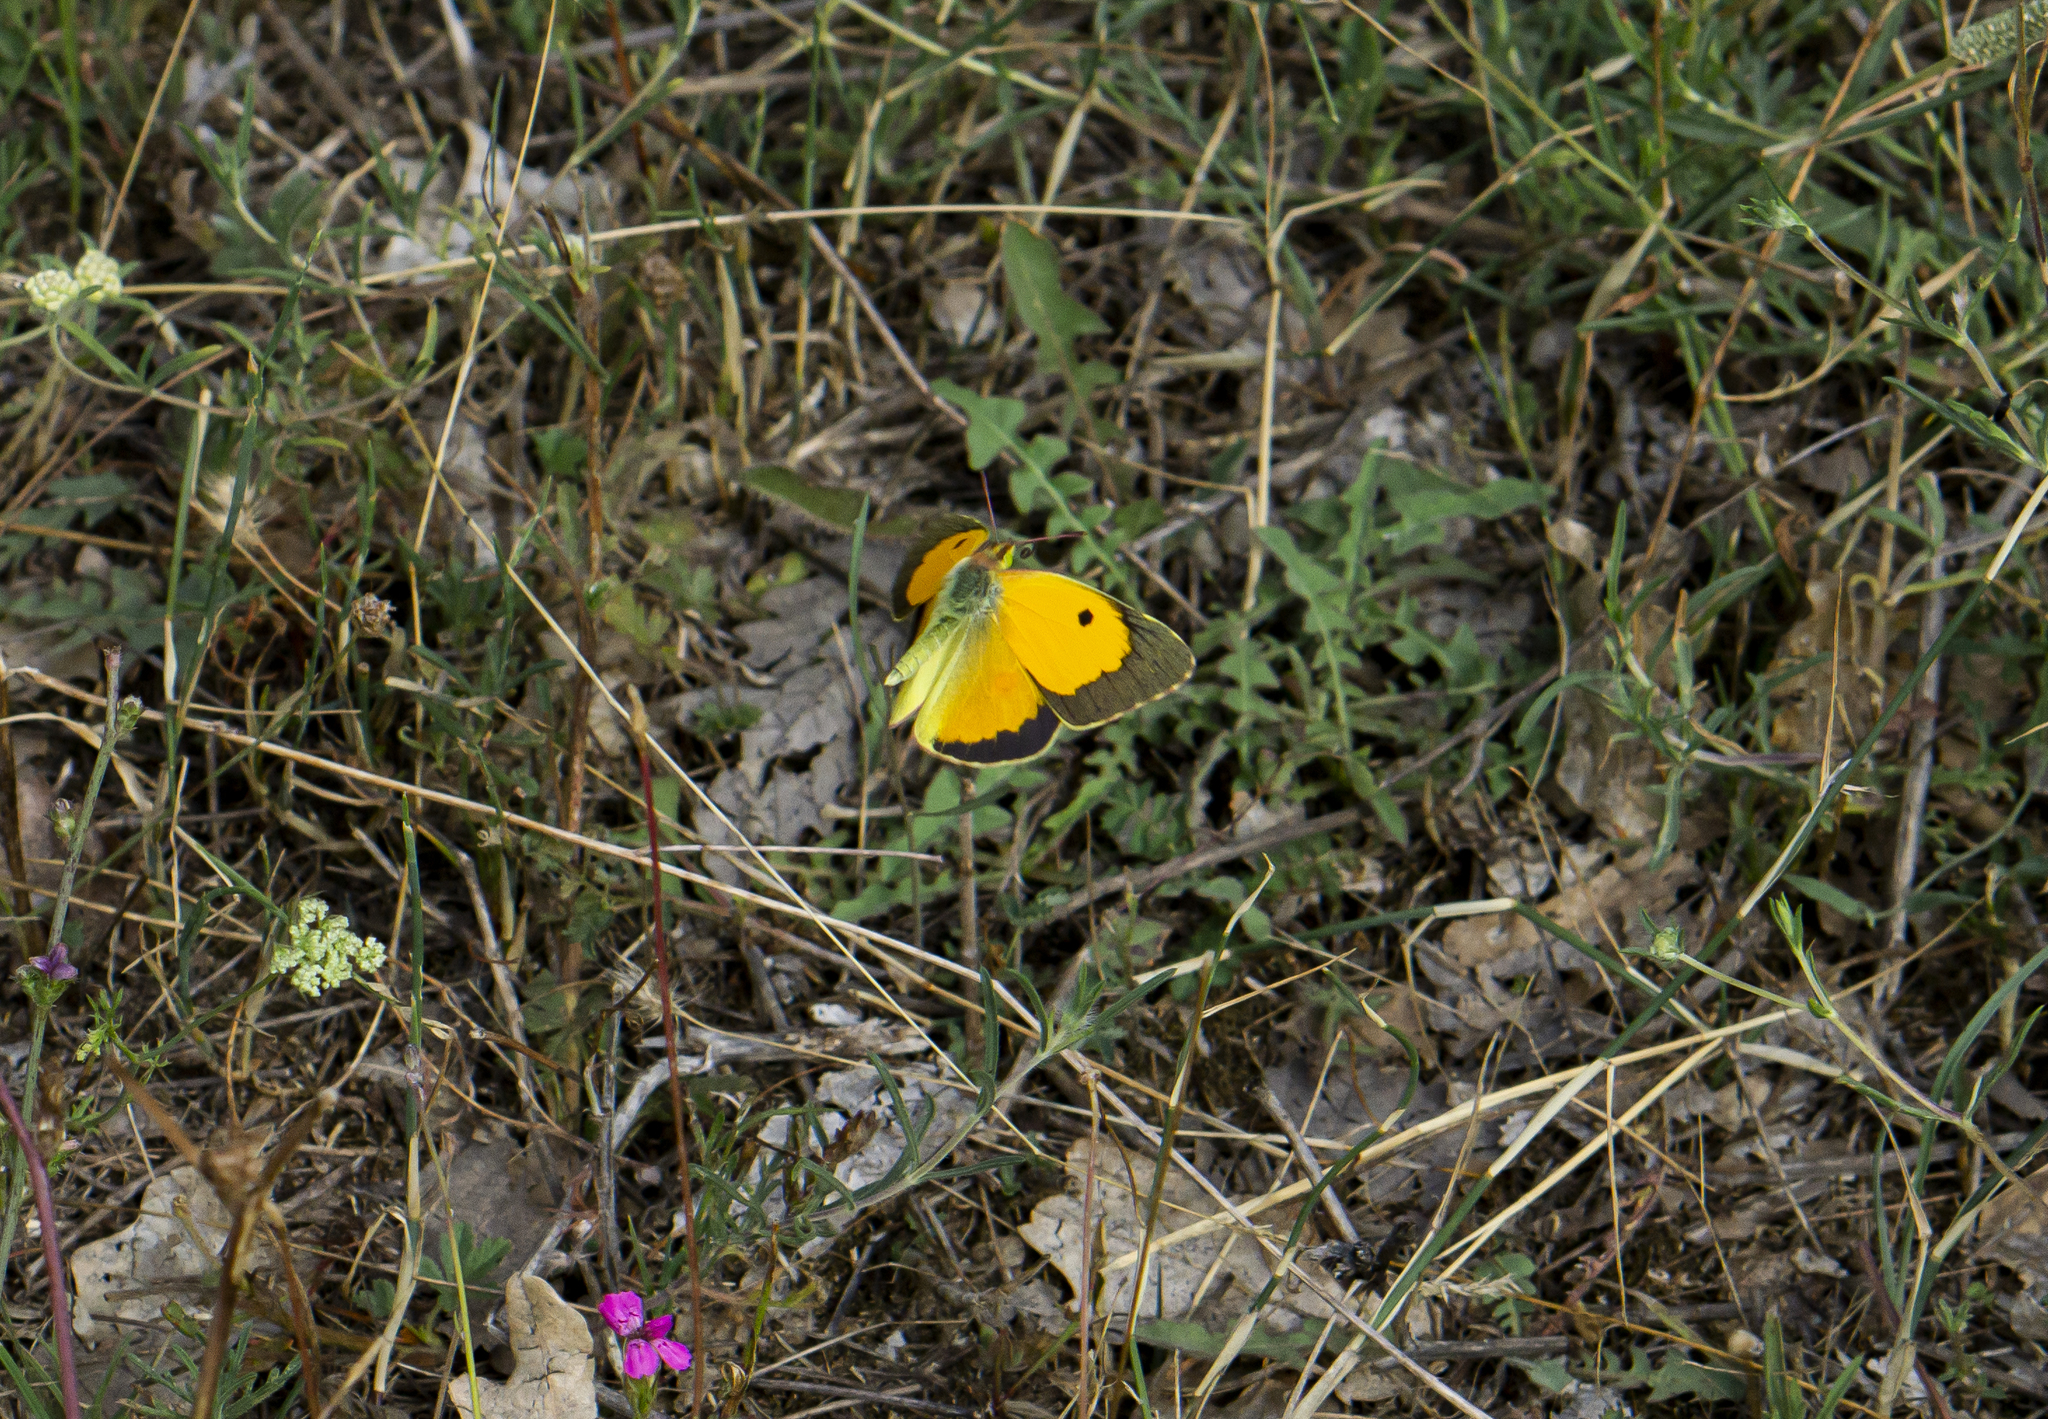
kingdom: Animalia
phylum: Arthropoda
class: Insecta
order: Lepidoptera
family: Pieridae
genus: Colias
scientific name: Colias croceus
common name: Clouded yellow
